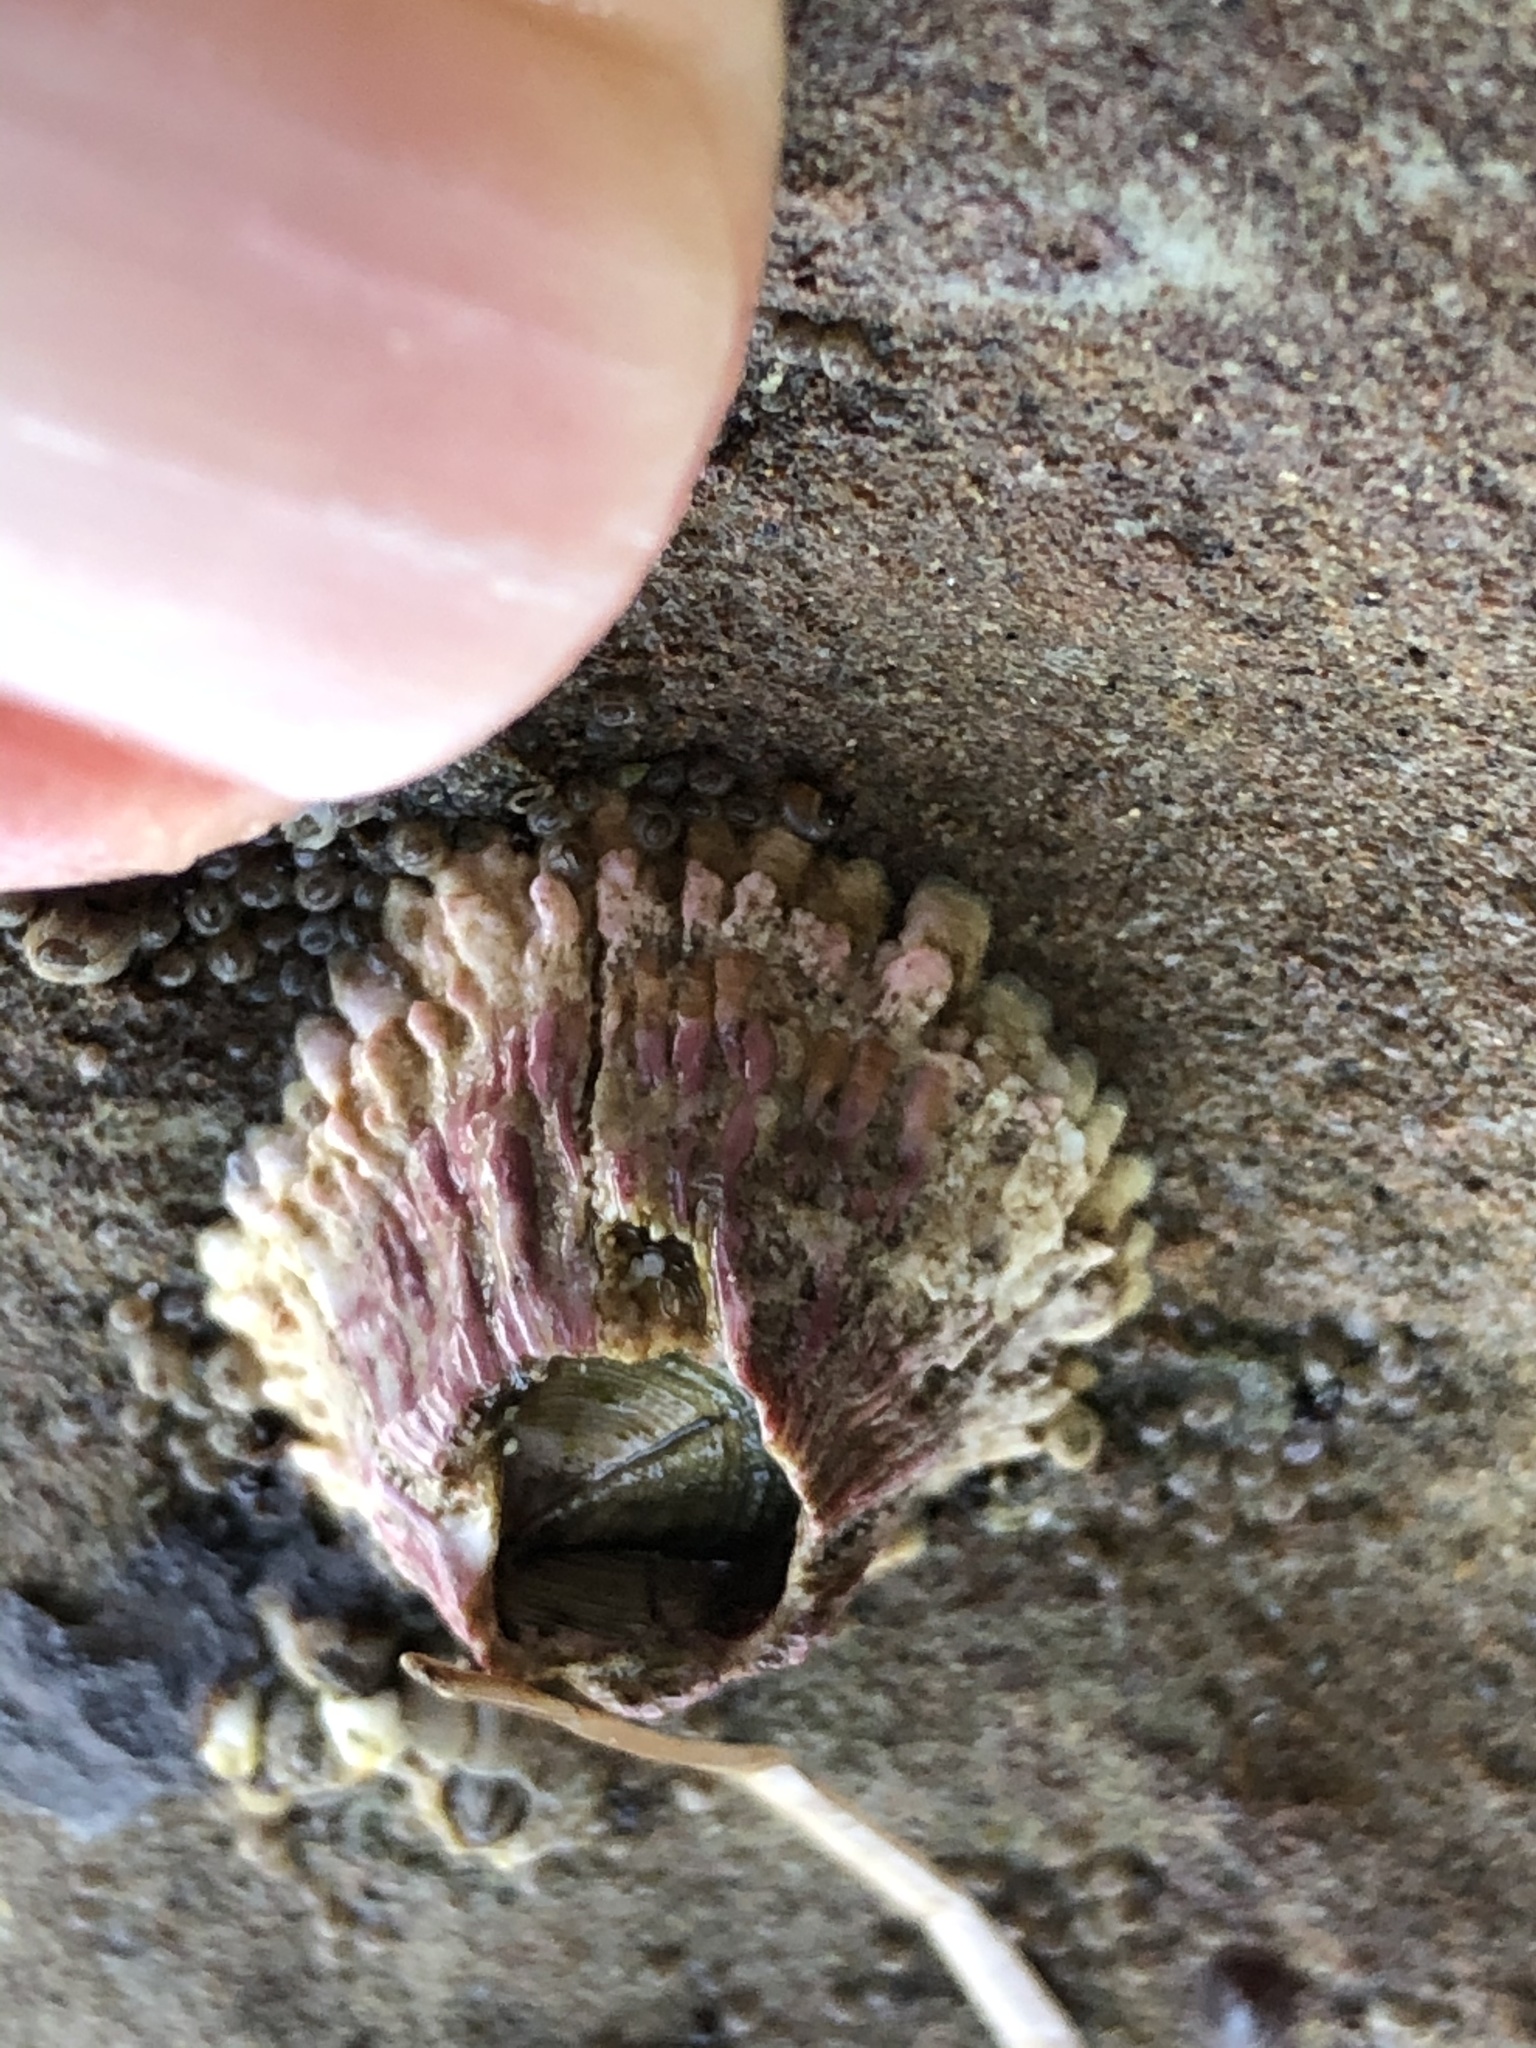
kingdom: Animalia
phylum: Arthropoda
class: Maxillopoda
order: Sessilia
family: Tetraclitidae
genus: Tetraclita
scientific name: Tetraclita rubescens
